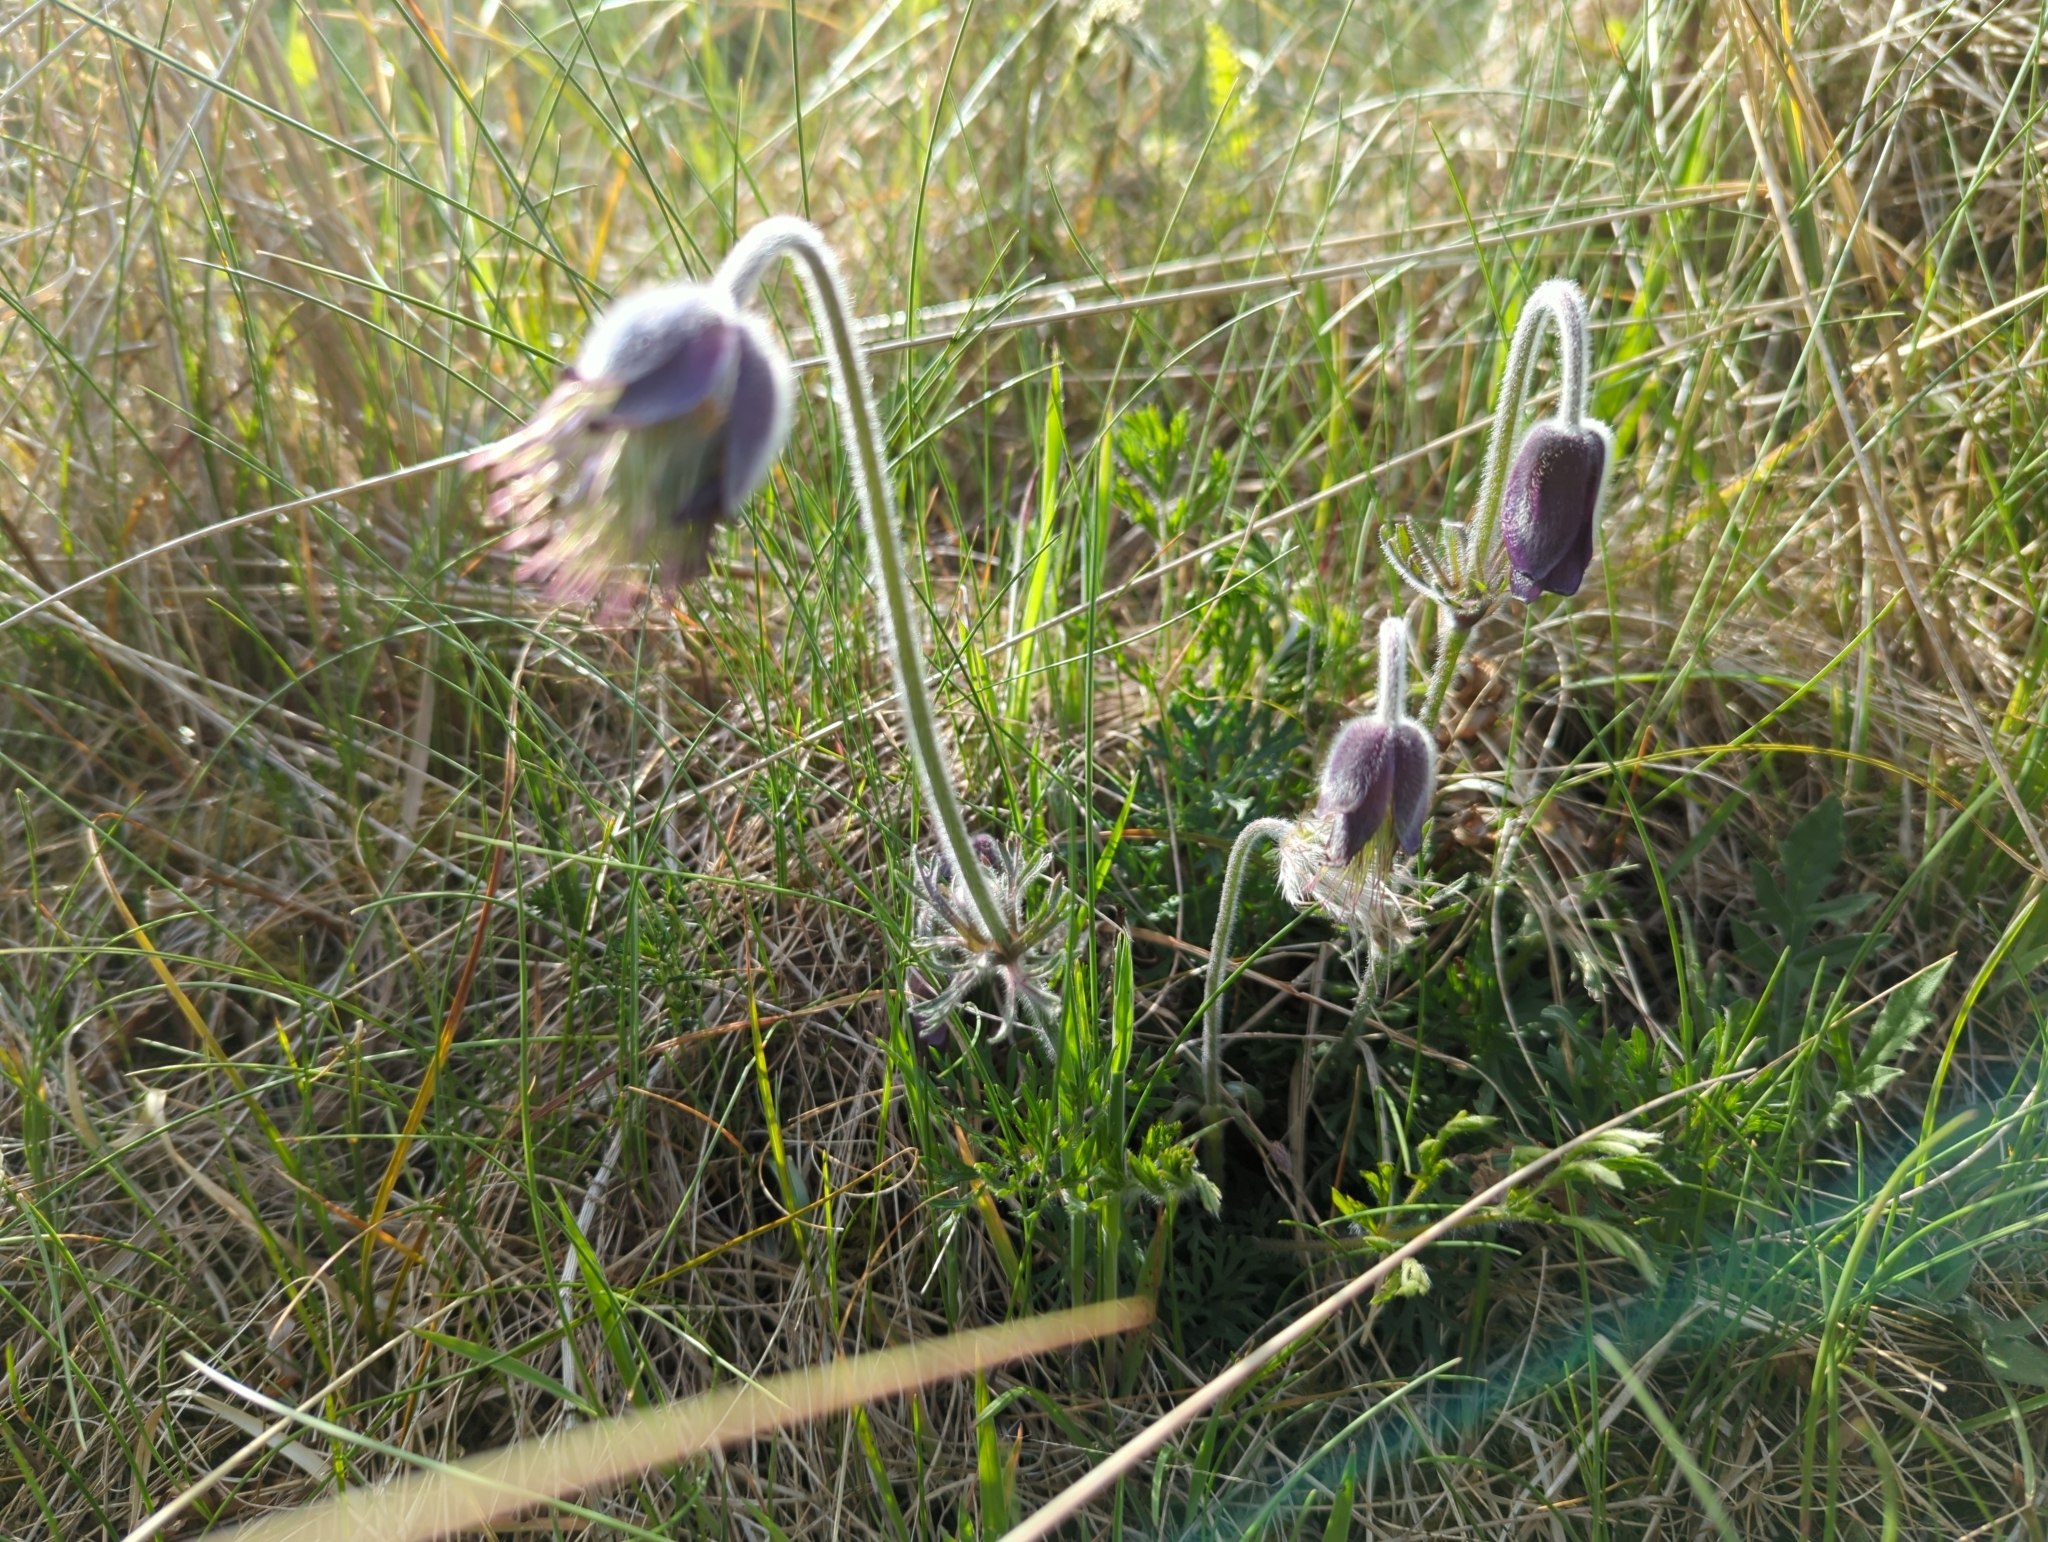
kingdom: Plantae
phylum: Tracheophyta
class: Magnoliopsida
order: Ranunculales
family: Ranunculaceae
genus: Pulsatilla
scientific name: Pulsatilla pratensis
